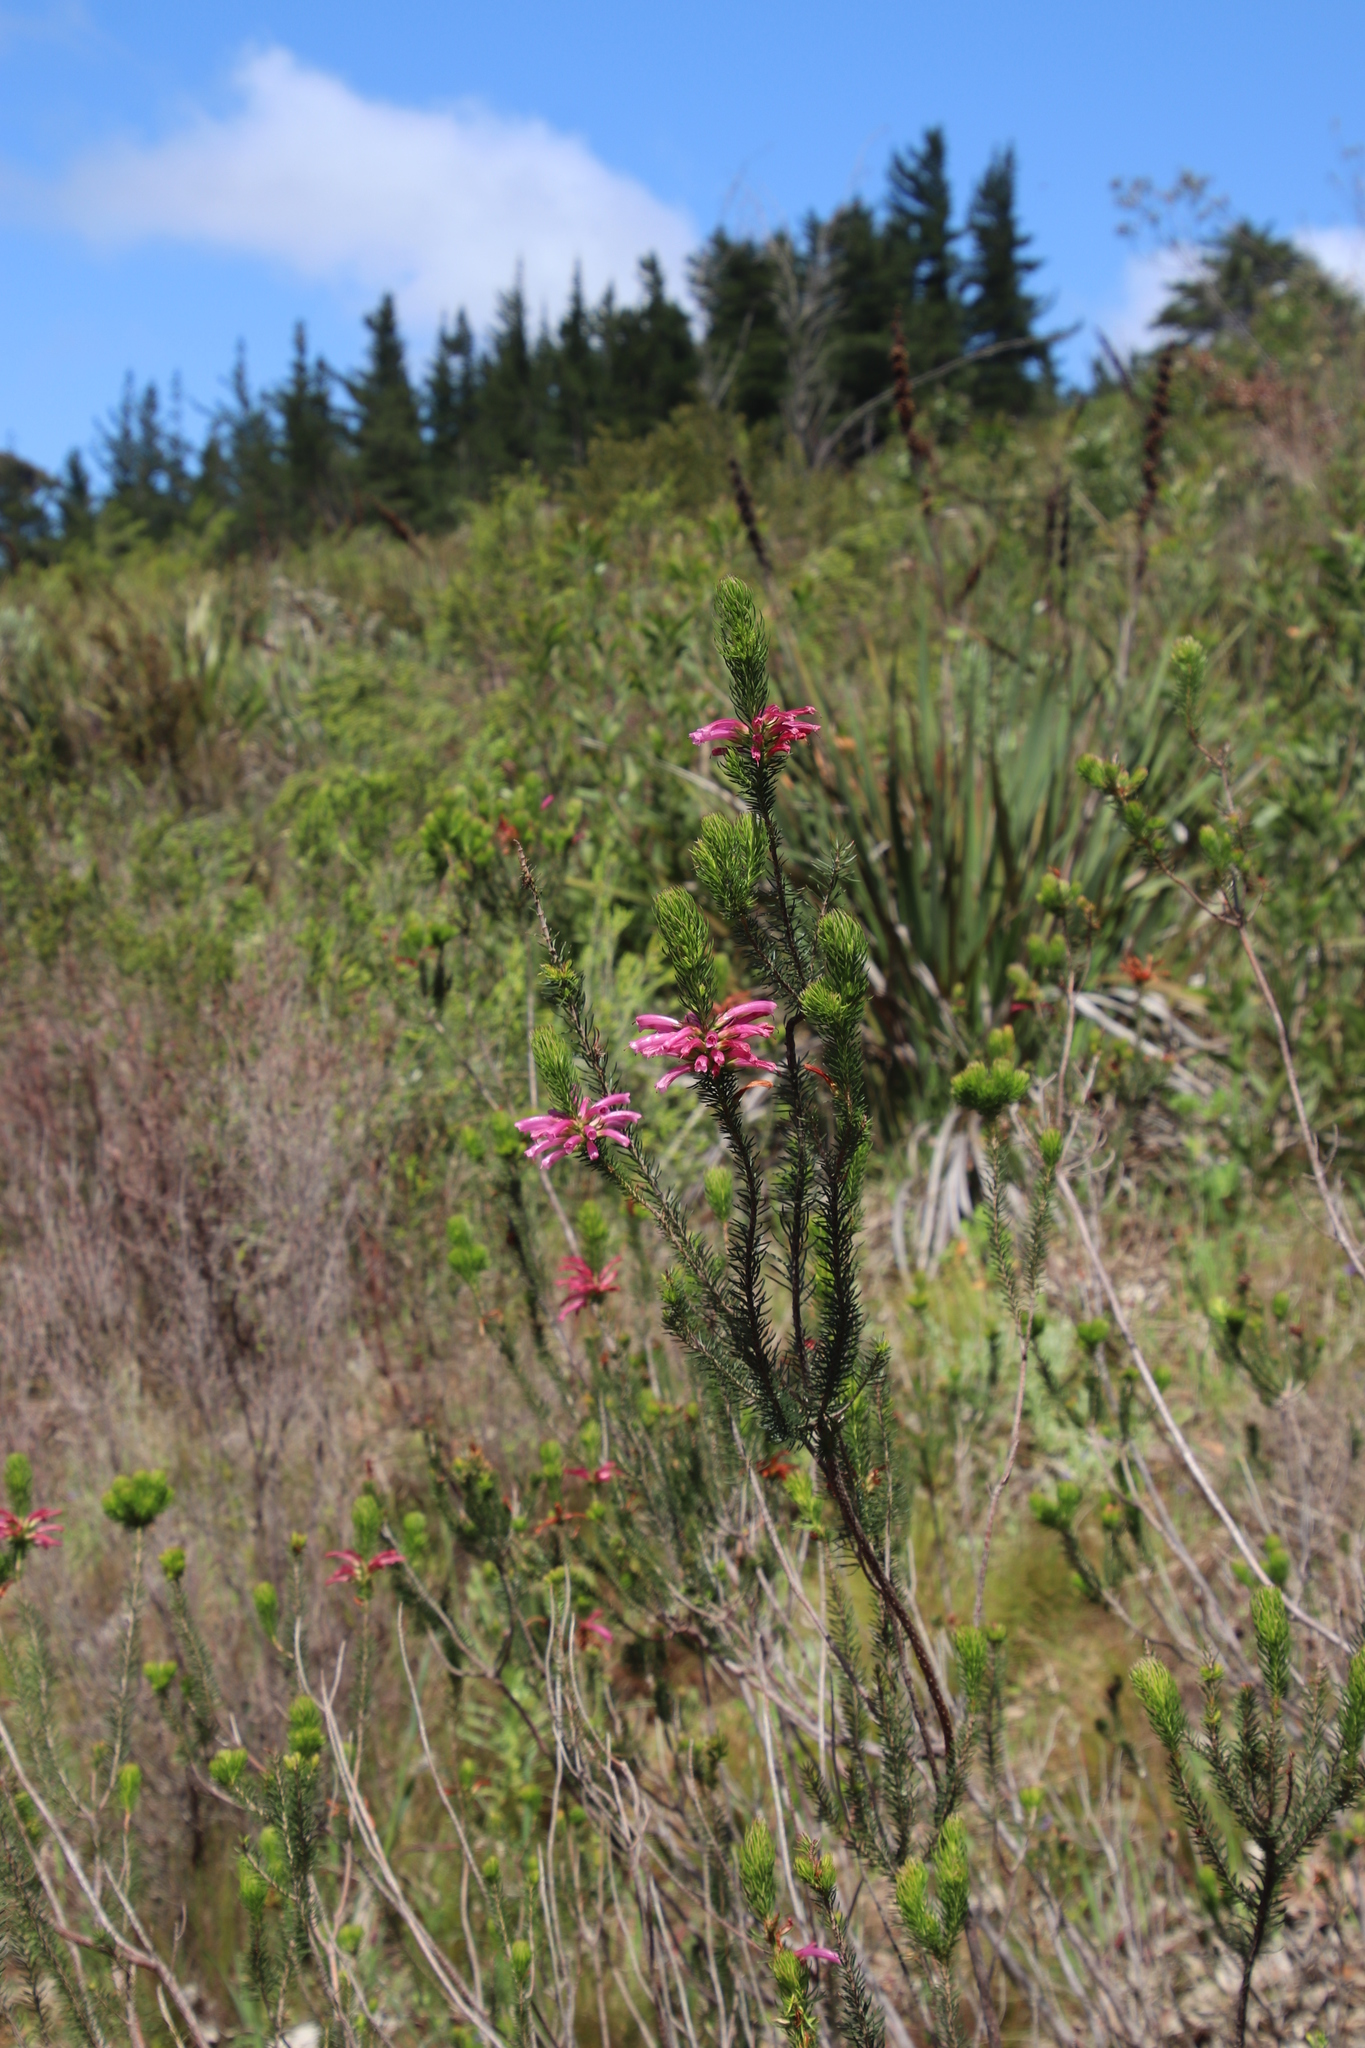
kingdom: Plantae
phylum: Tracheophyta
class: Magnoliopsida
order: Ericales
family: Ericaceae
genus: Erica
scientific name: Erica abietina
